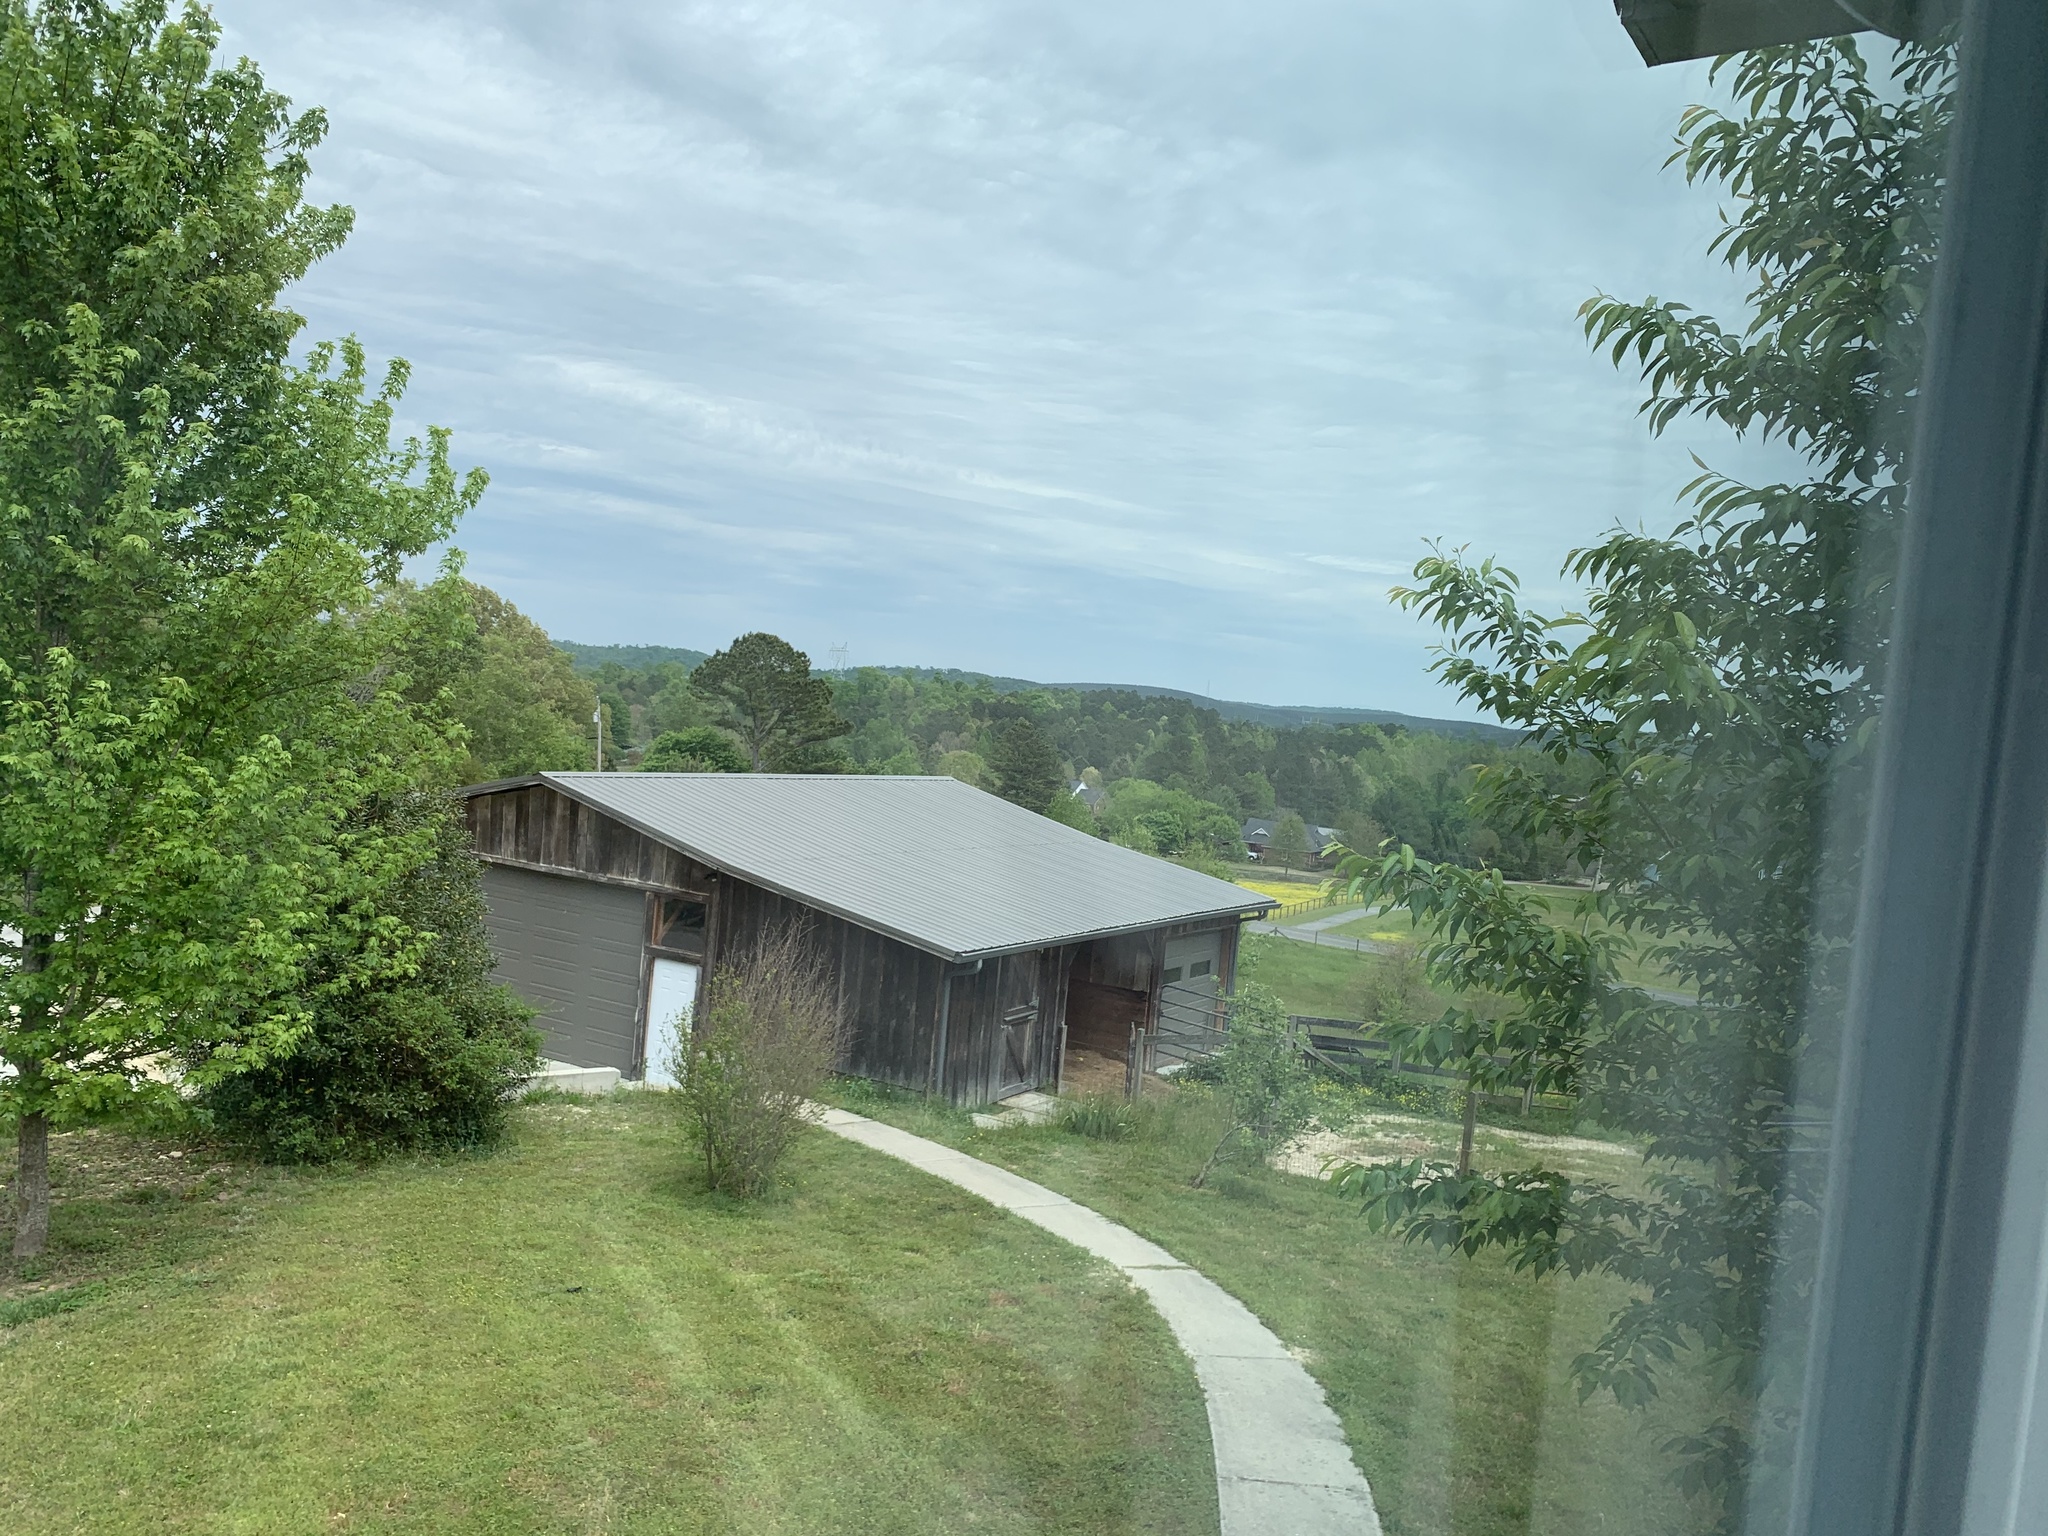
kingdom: Animalia
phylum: Chordata
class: Aves
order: Accipitriformes
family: Cathartidae
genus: Coragyps
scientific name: Coragyps atratus
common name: Black vulture
